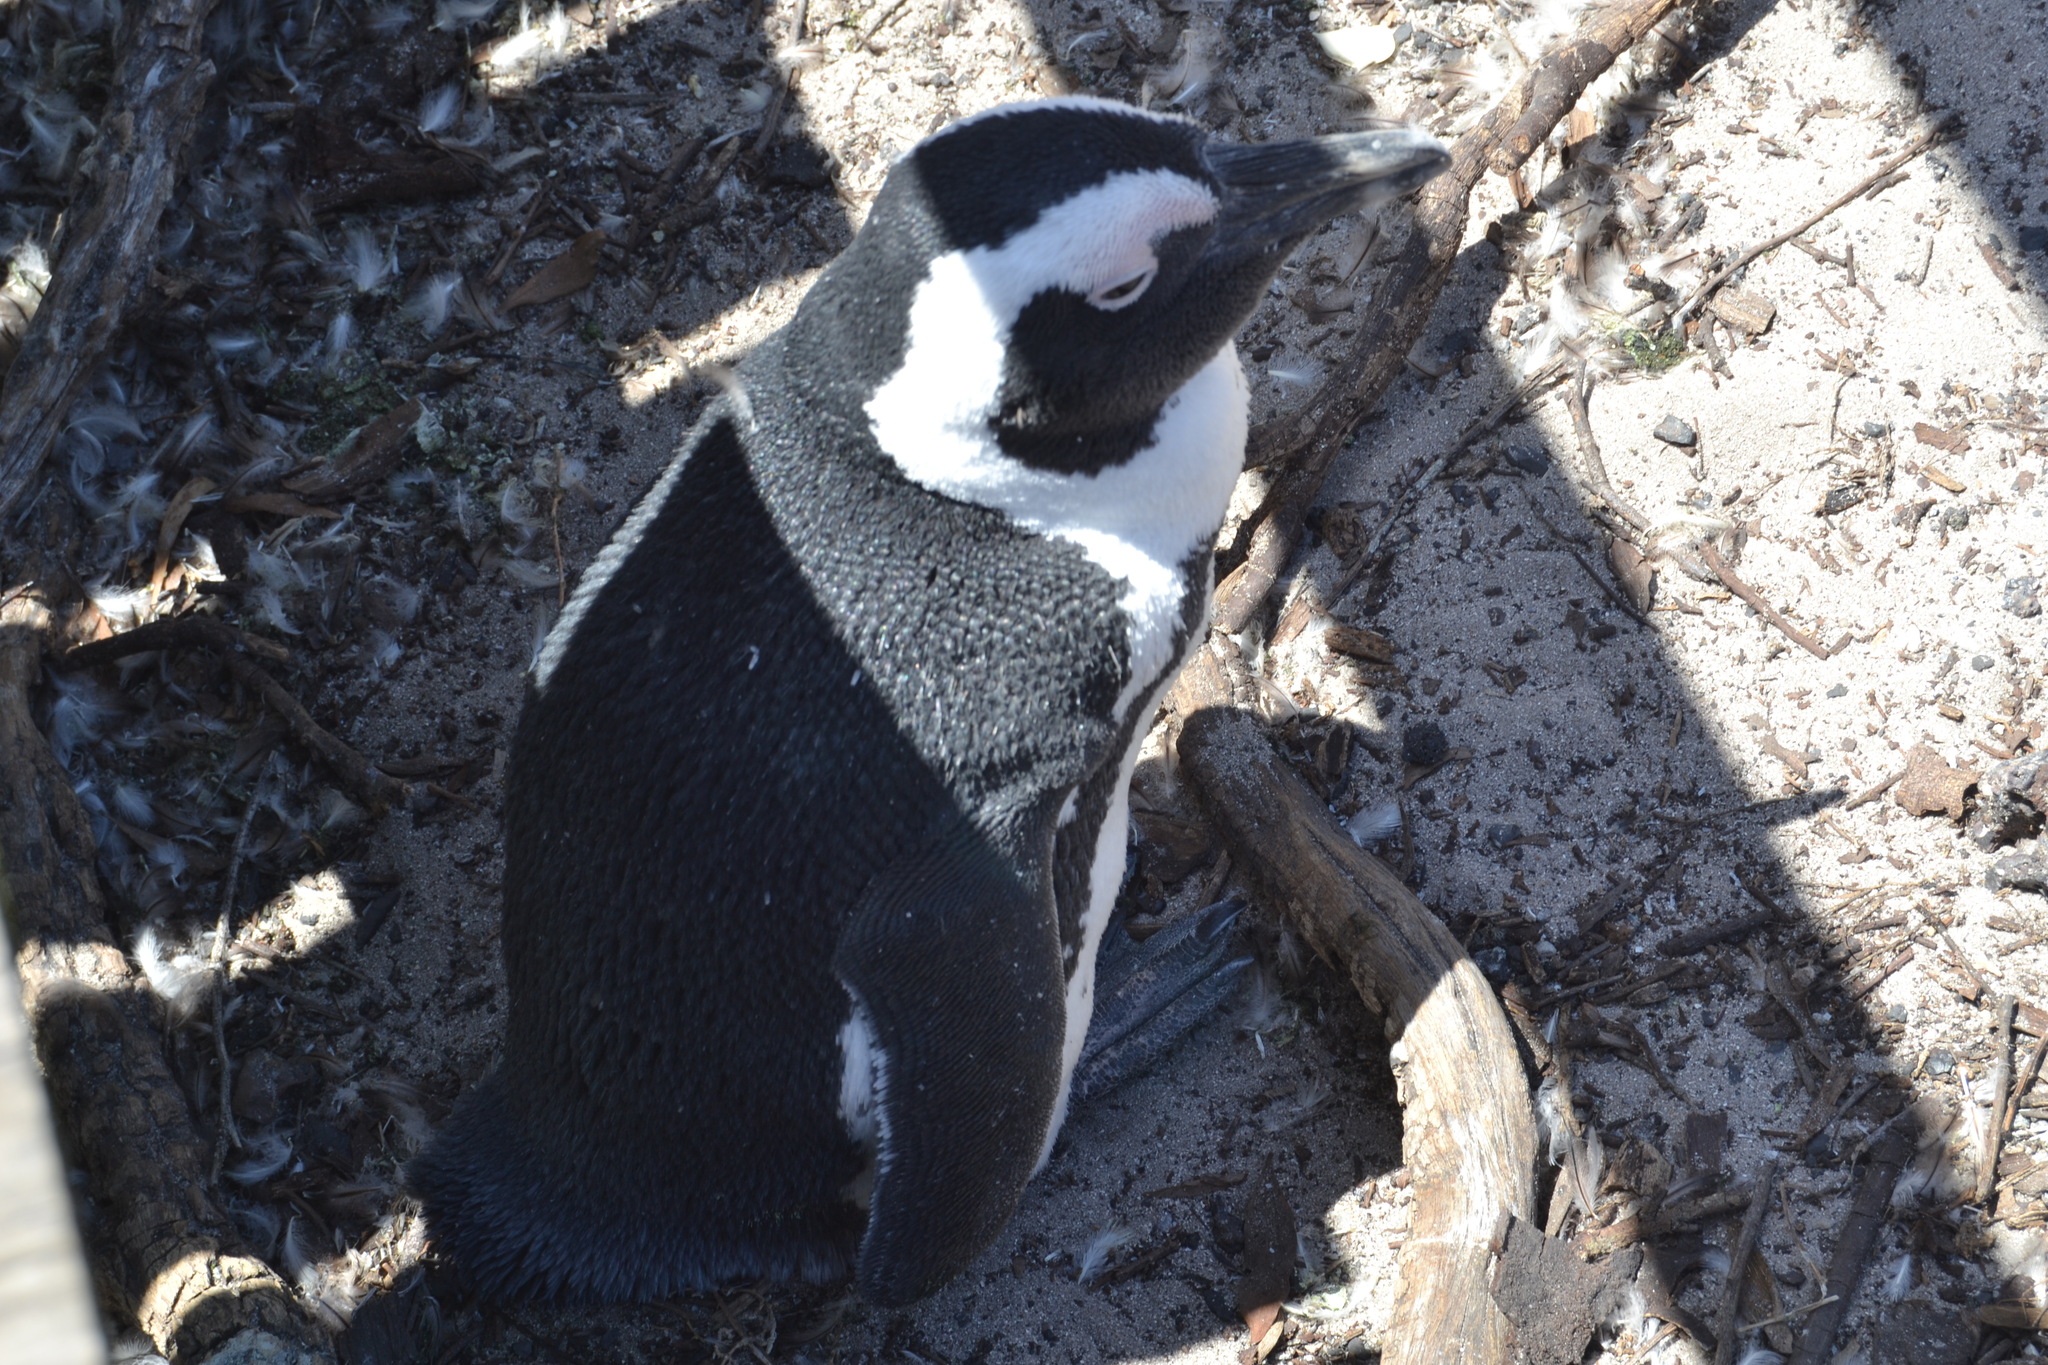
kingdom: Animalia
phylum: Chordata
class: Aves
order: Sphenisciformes
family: Spheniscidae
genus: Spheniscus
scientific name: Spheniscus demersus
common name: African penguin
